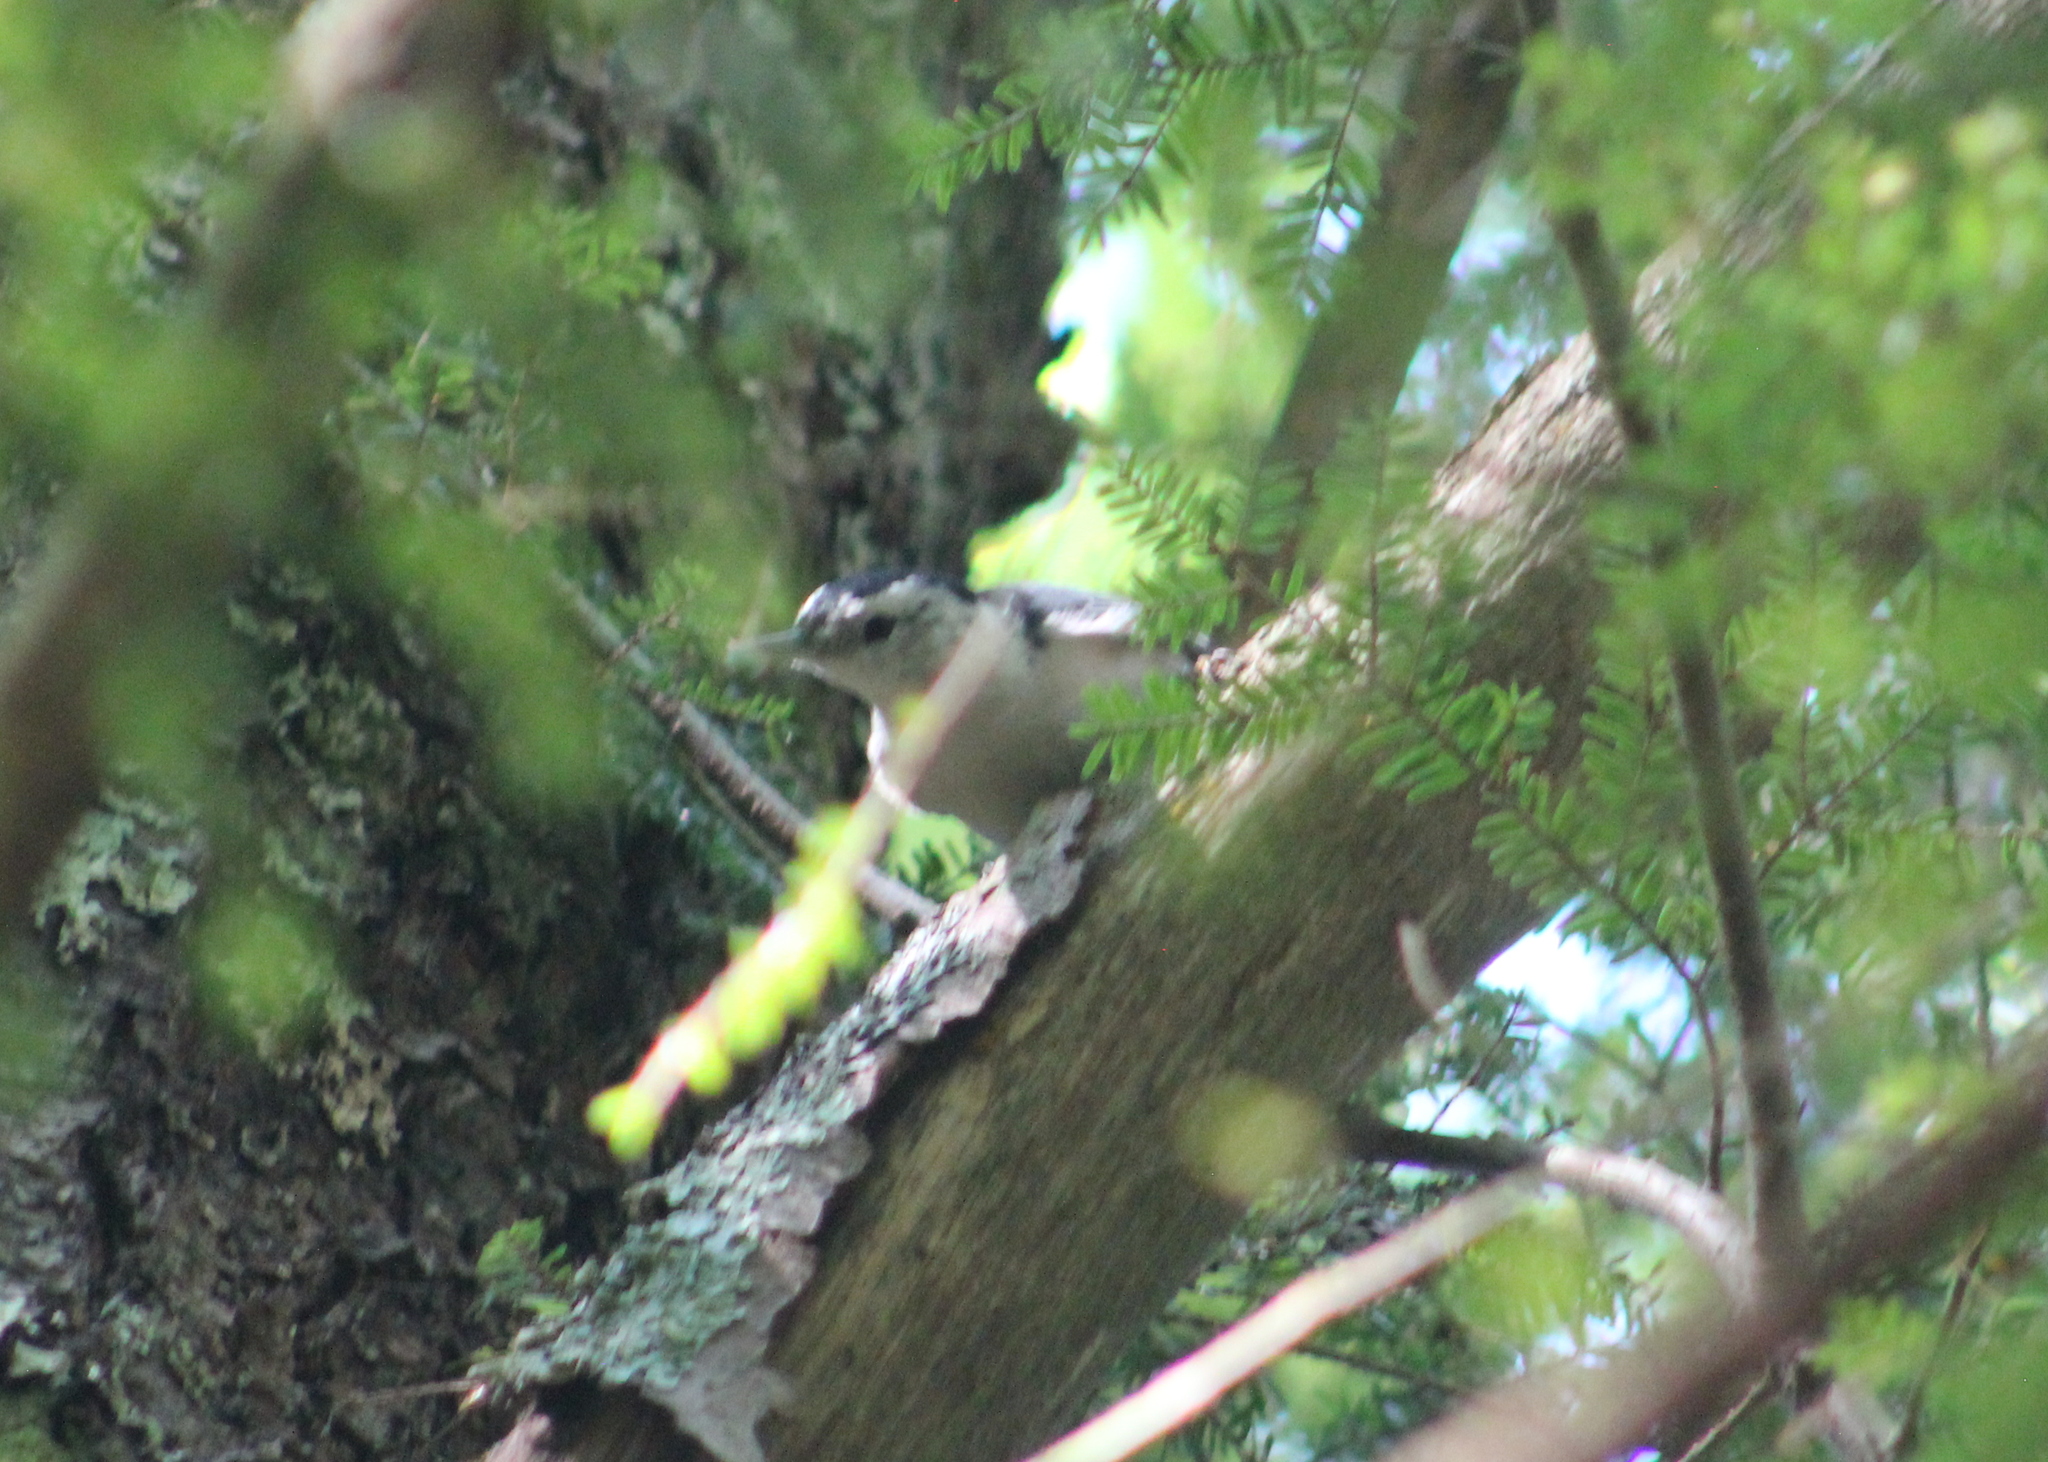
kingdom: Animalia
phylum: Chordata
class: Aves
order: Passeriformes
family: Sittidae
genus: Sitta
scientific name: Sitta carolinensis
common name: White-breasted nuthatch
